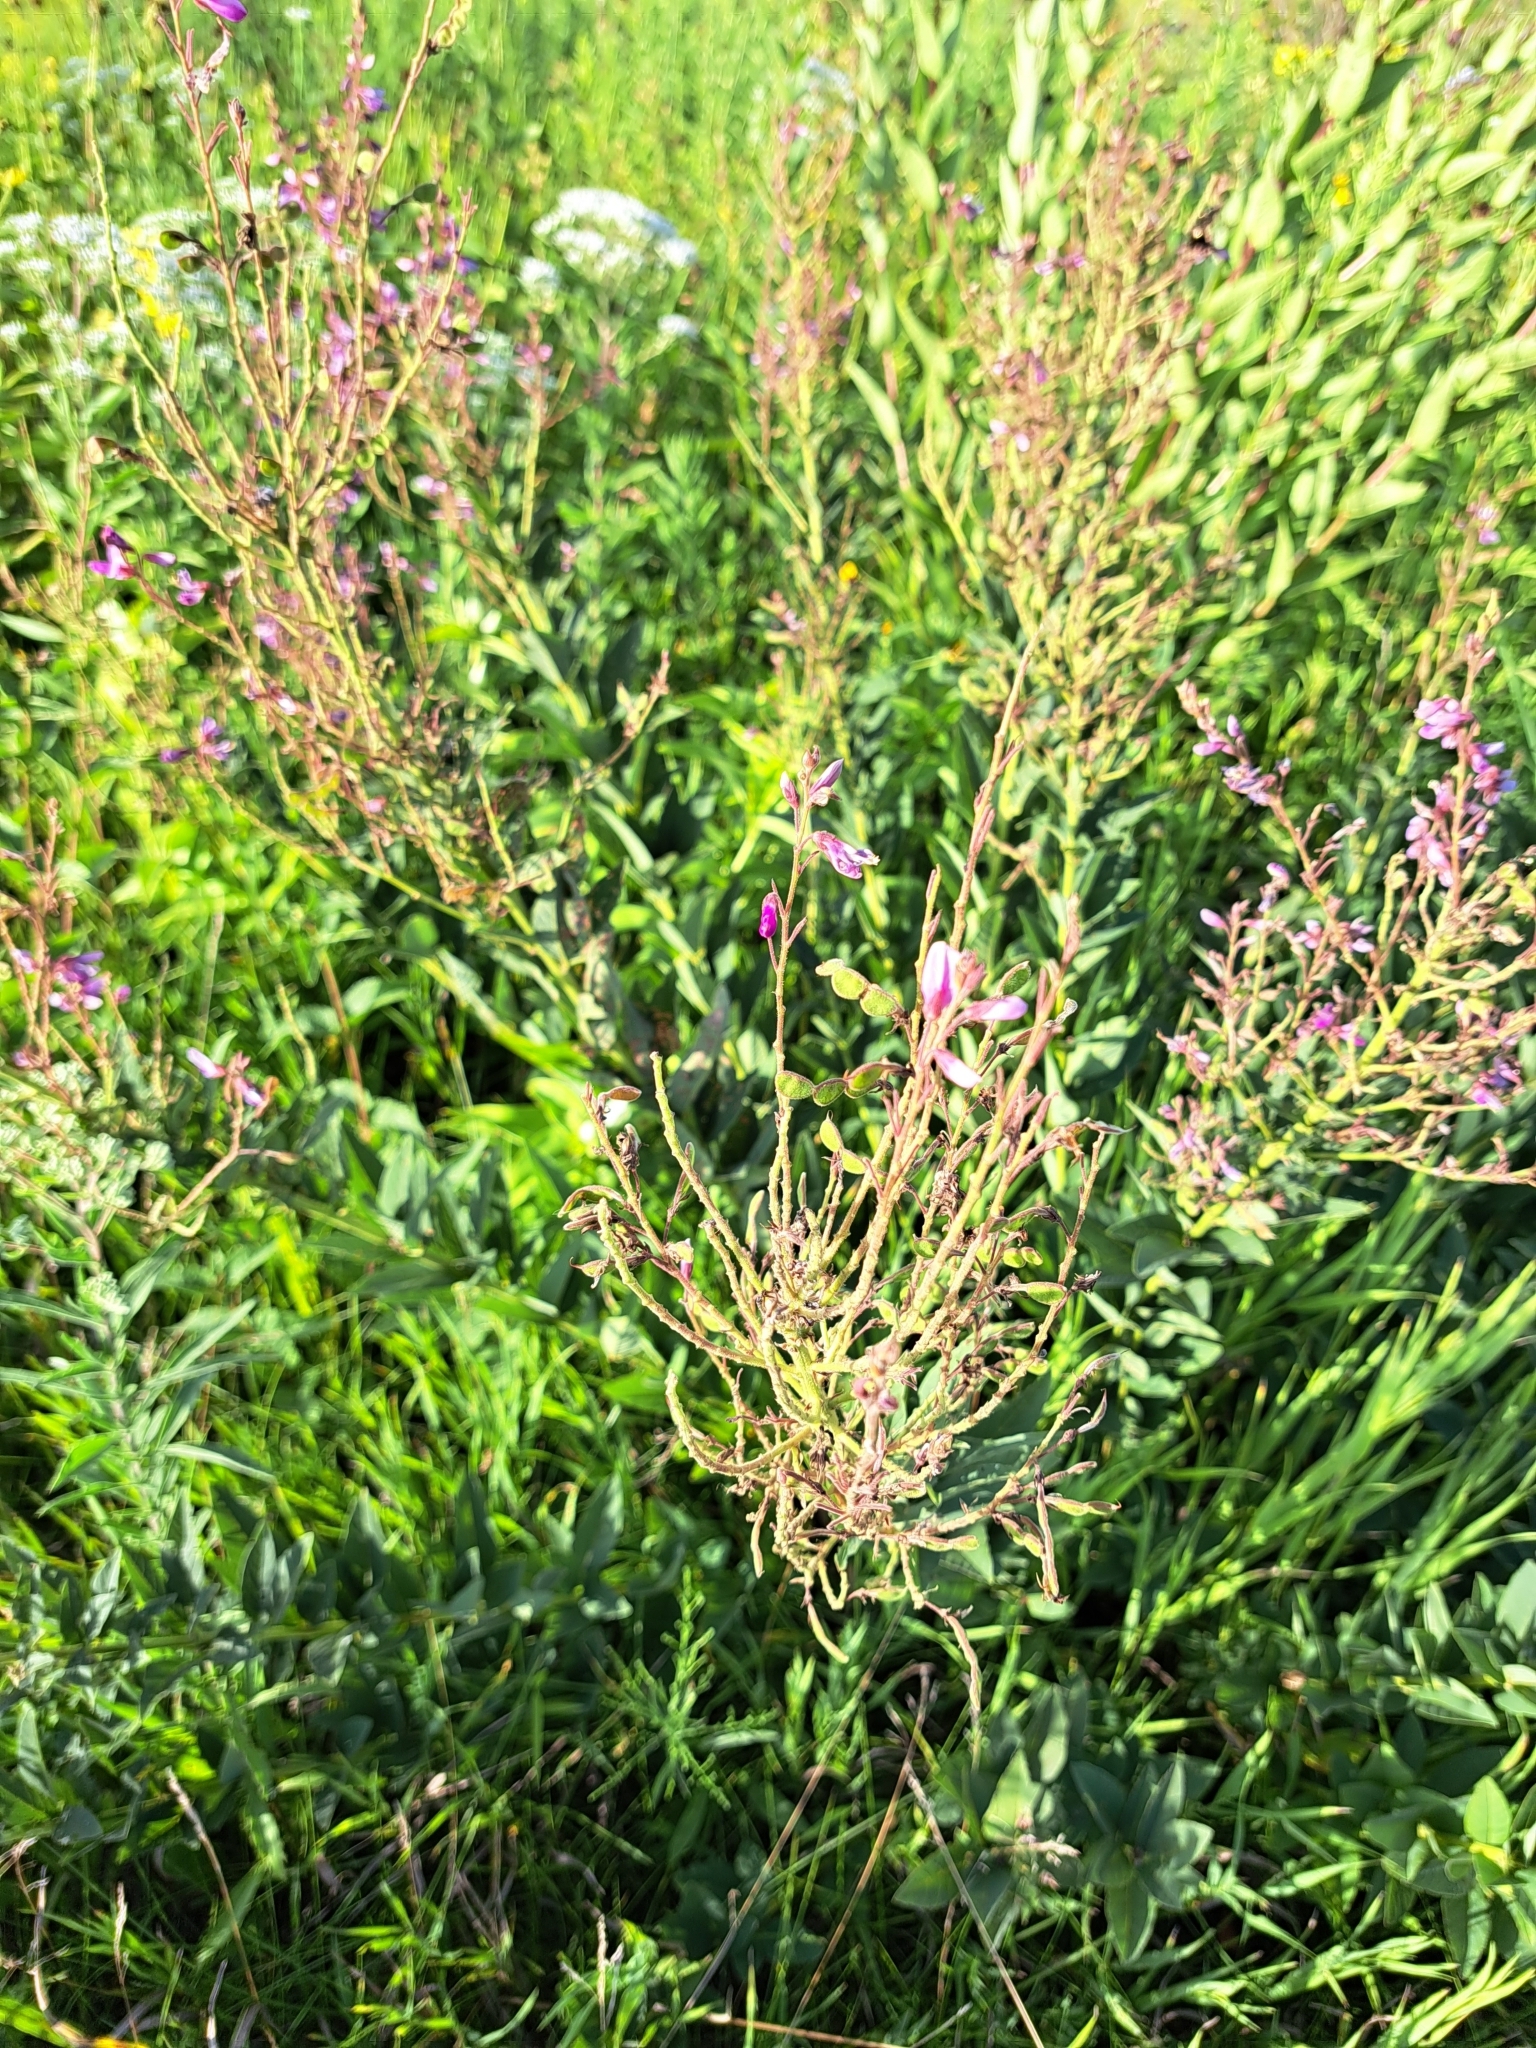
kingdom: Plantae
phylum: Tracheophyta
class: Magnoliopsida
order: Fabales
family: Fabaceae
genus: Desmodium
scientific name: Desmodium canadense
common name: Canada tick-trefoil
